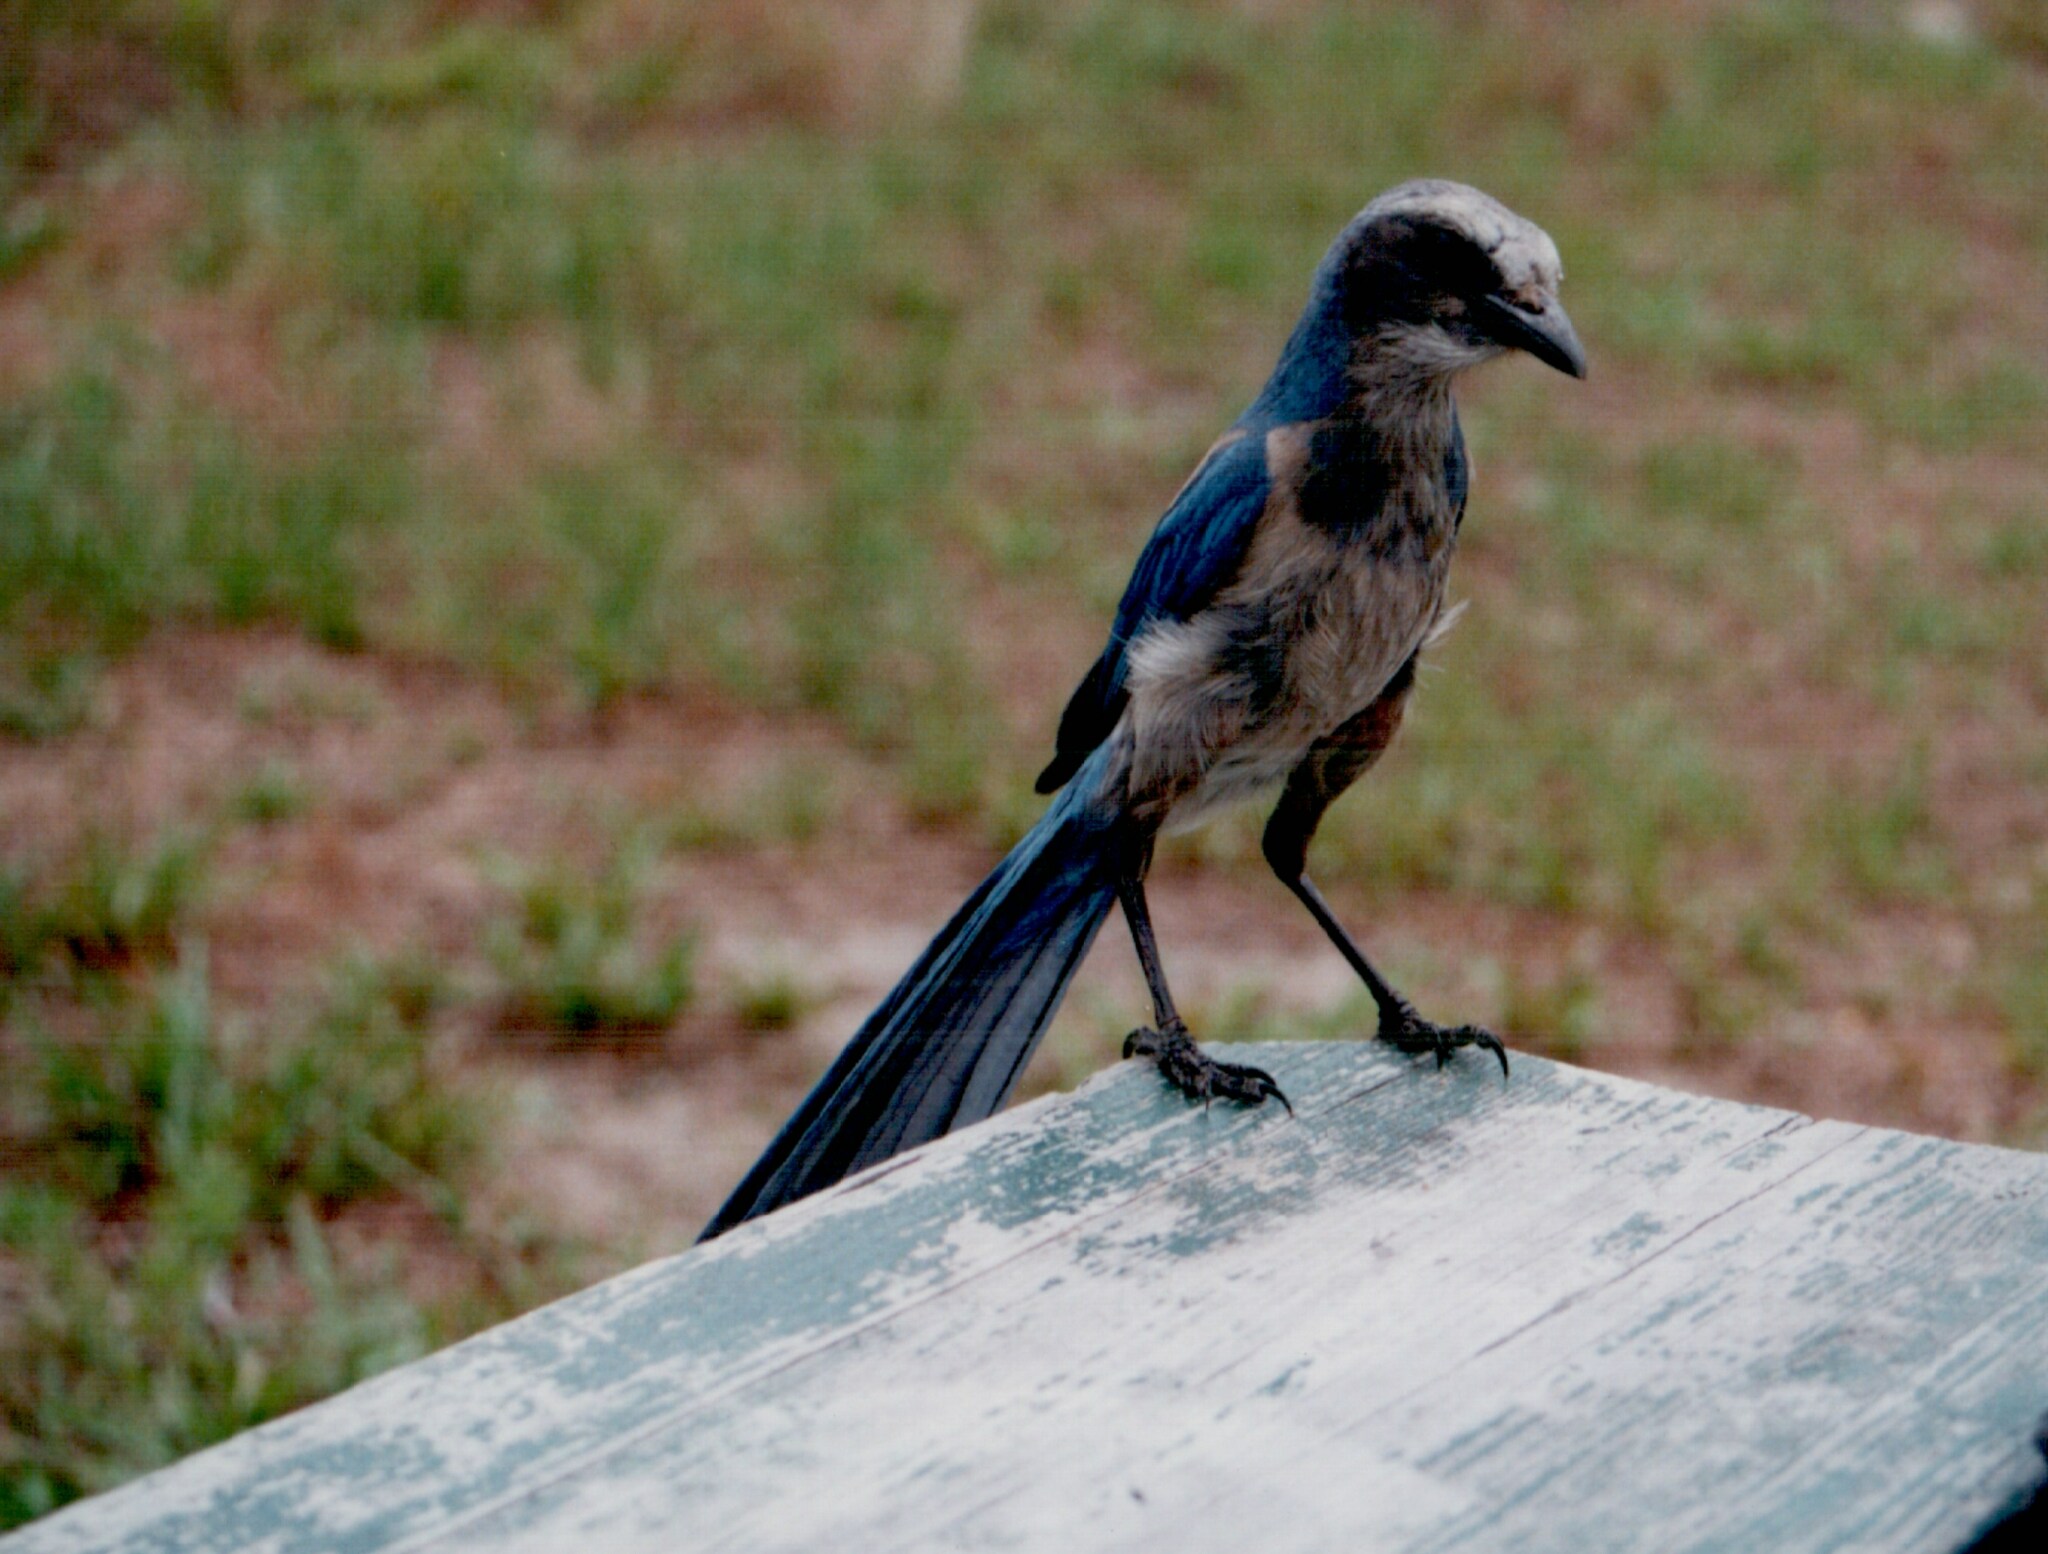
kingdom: Animalia
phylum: Chordata
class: Aves
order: Passeriformes
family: Corvidae
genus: Aphelocoma
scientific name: Aphelocoma coerulescens
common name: Florida scrub jay
